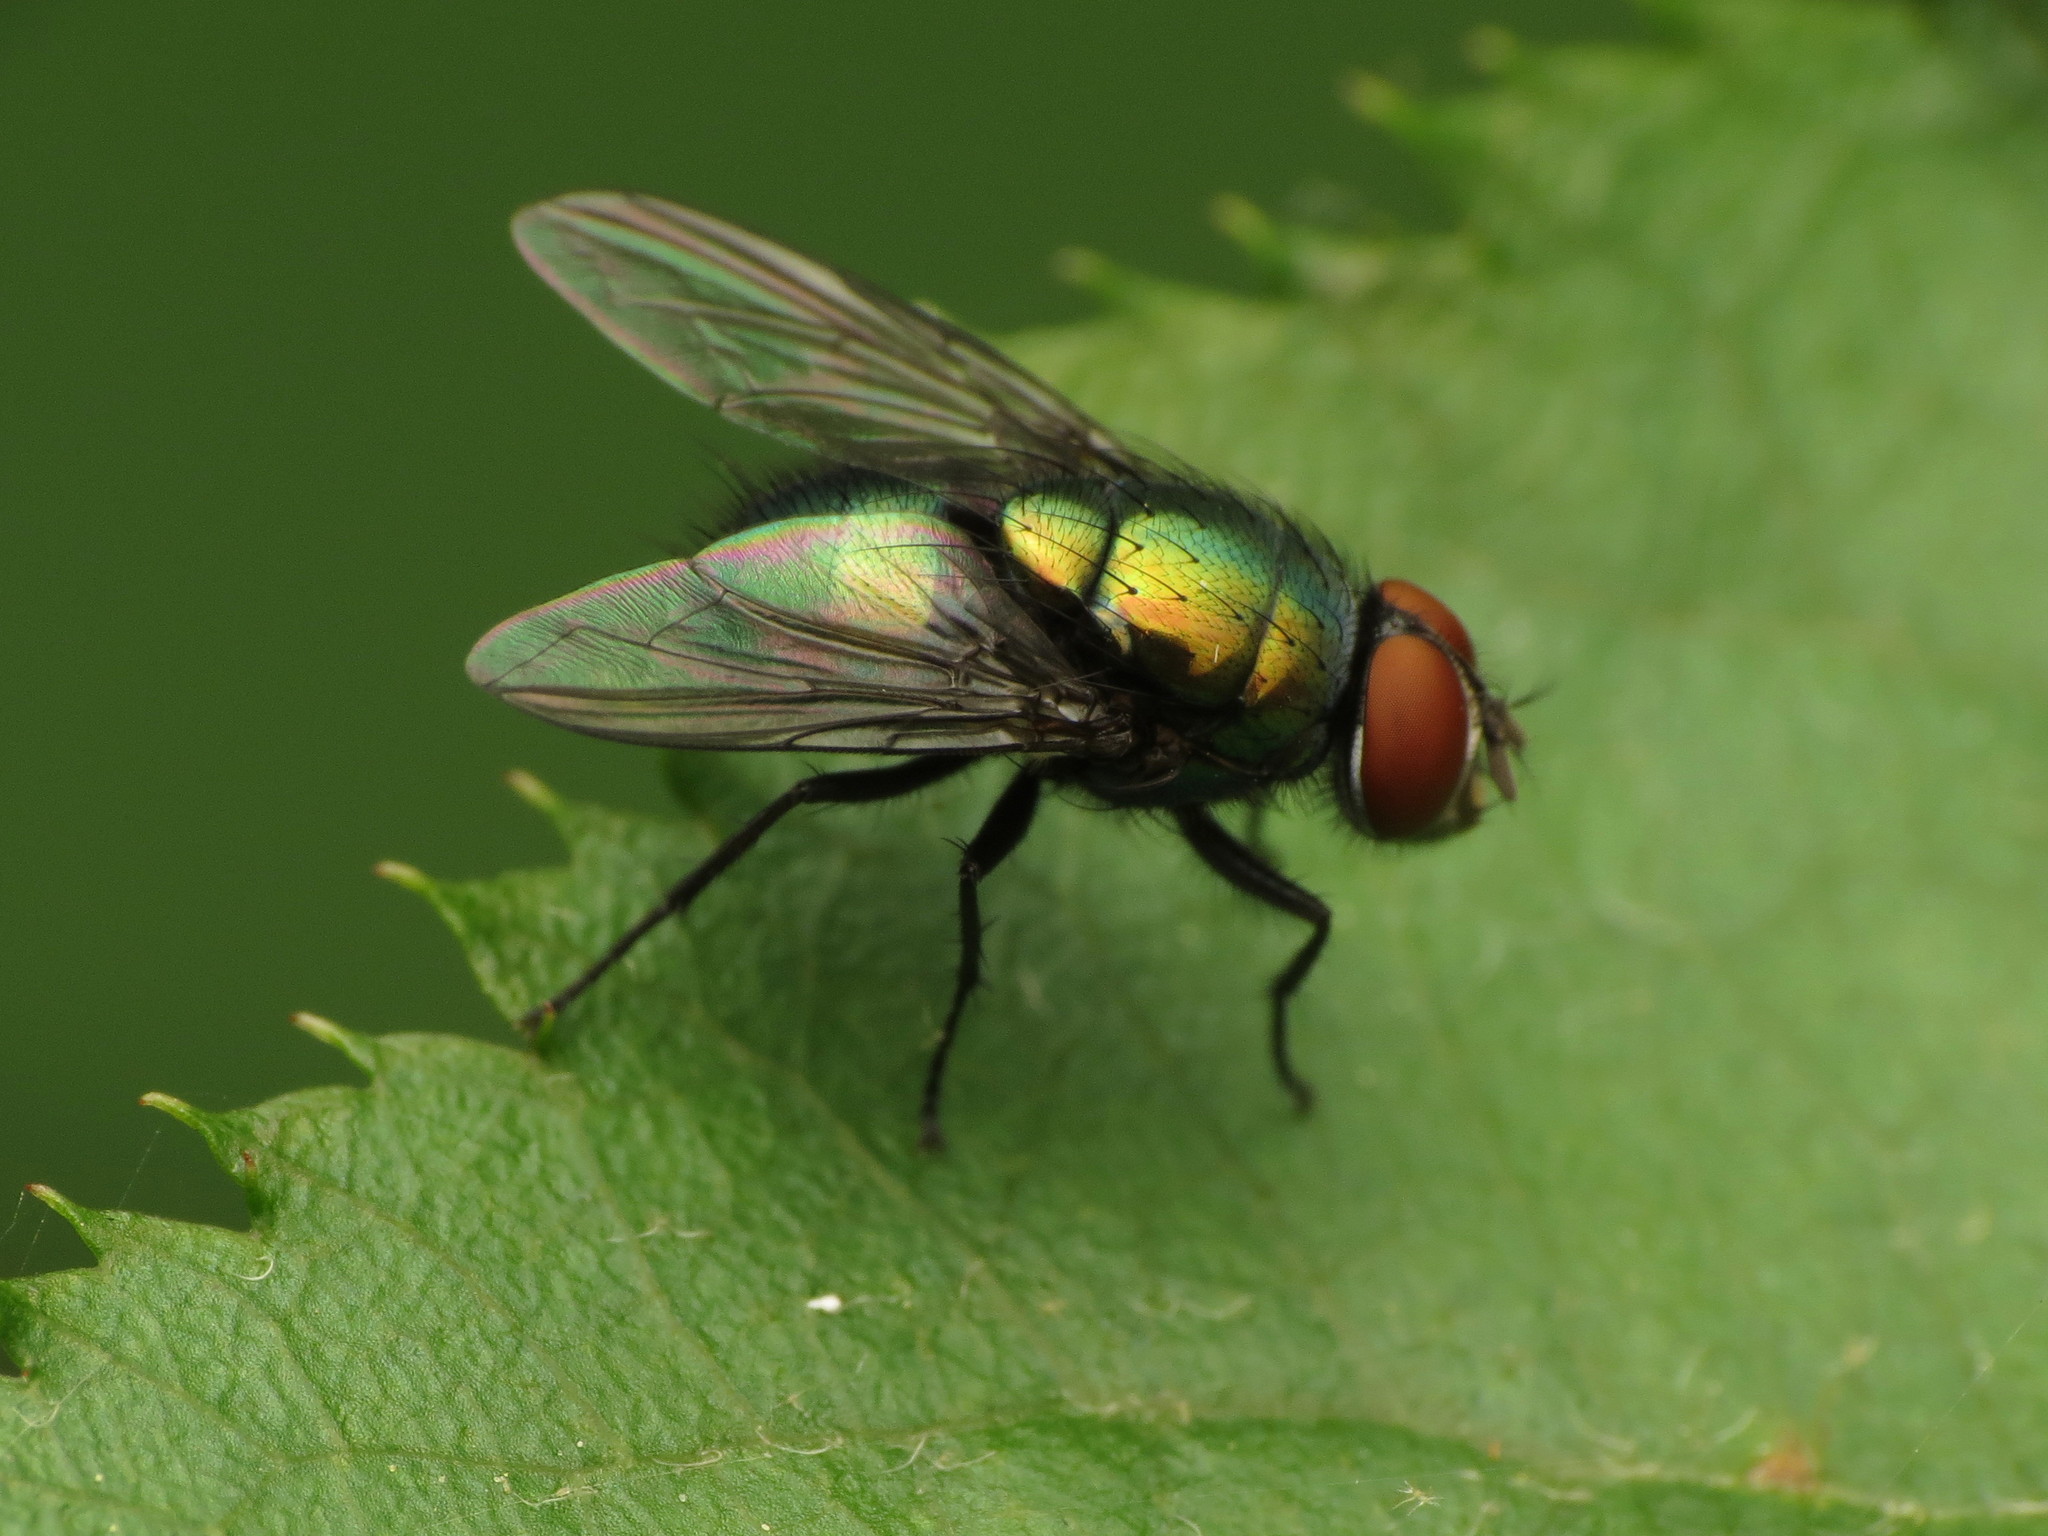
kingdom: Animalia
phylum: Arthropoda
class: Insecta
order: Diptera
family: Calliphoridae
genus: Lucilia
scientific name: Lucilia illustris
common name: Illustrious greenbottle
